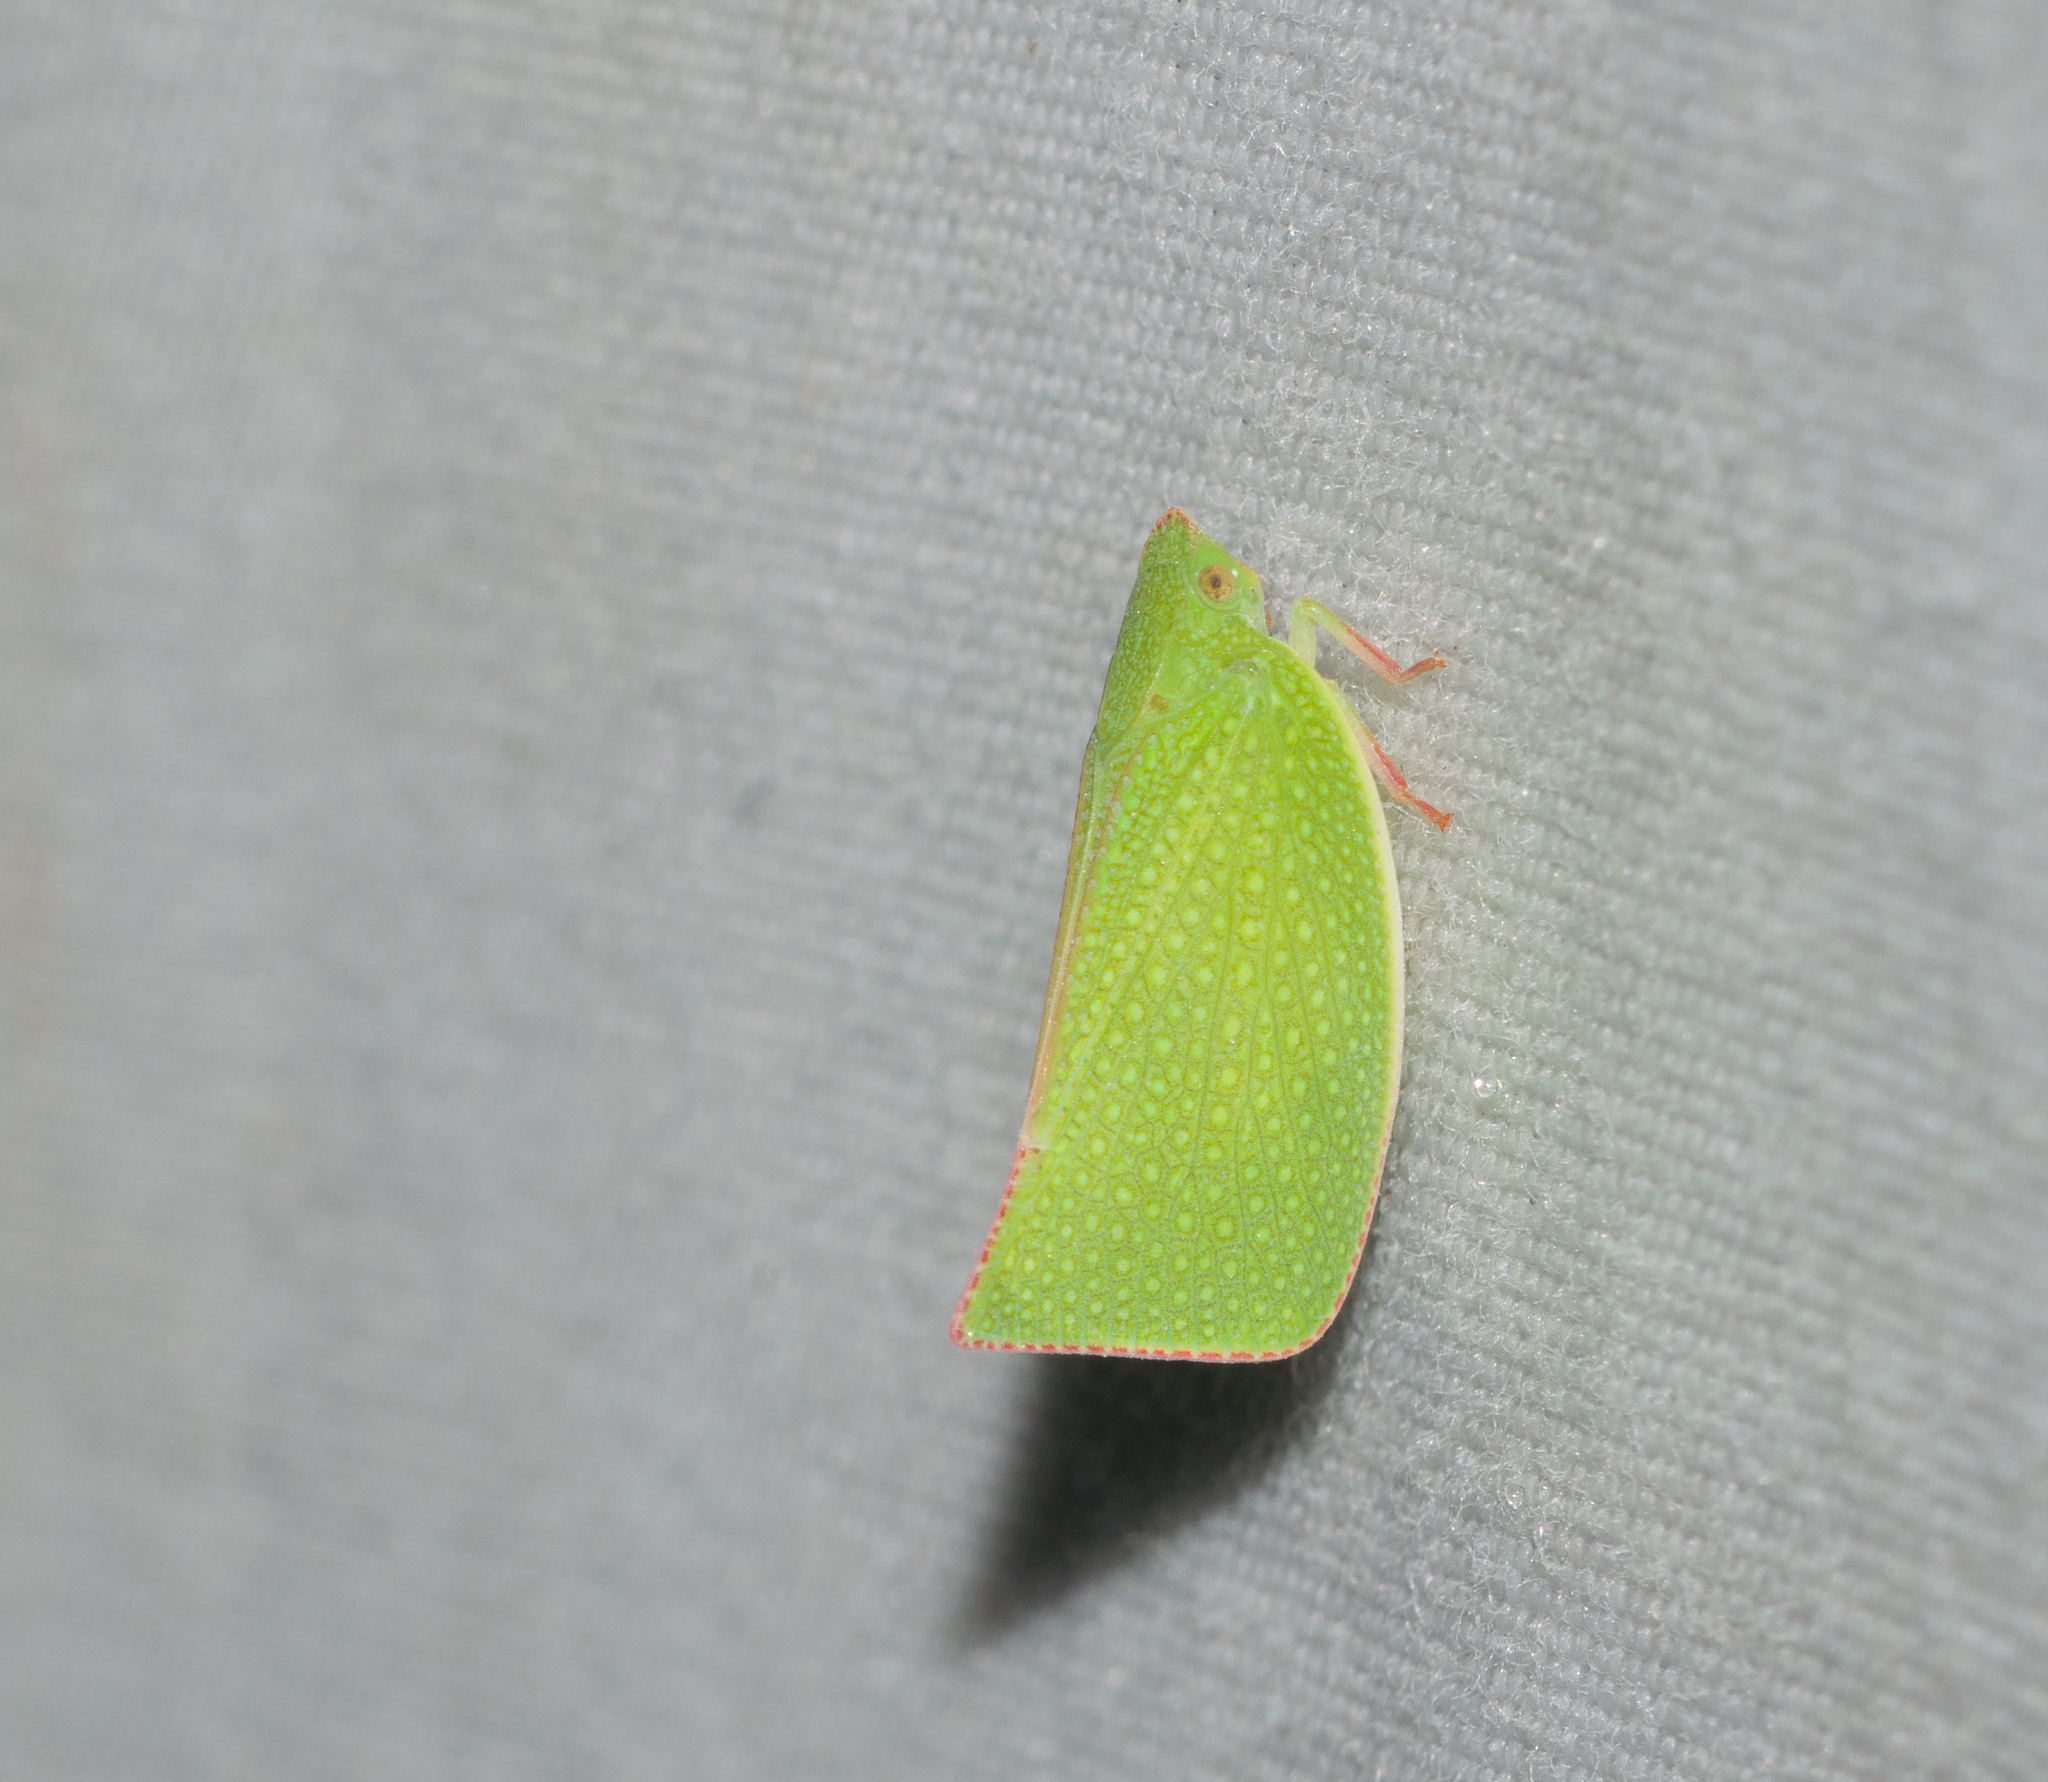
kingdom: Animalia
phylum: Arthropoda
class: Insecta
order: Hemiptera
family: Flatidae
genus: Siphanta
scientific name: Siphanta acuta
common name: Torpedo bug
